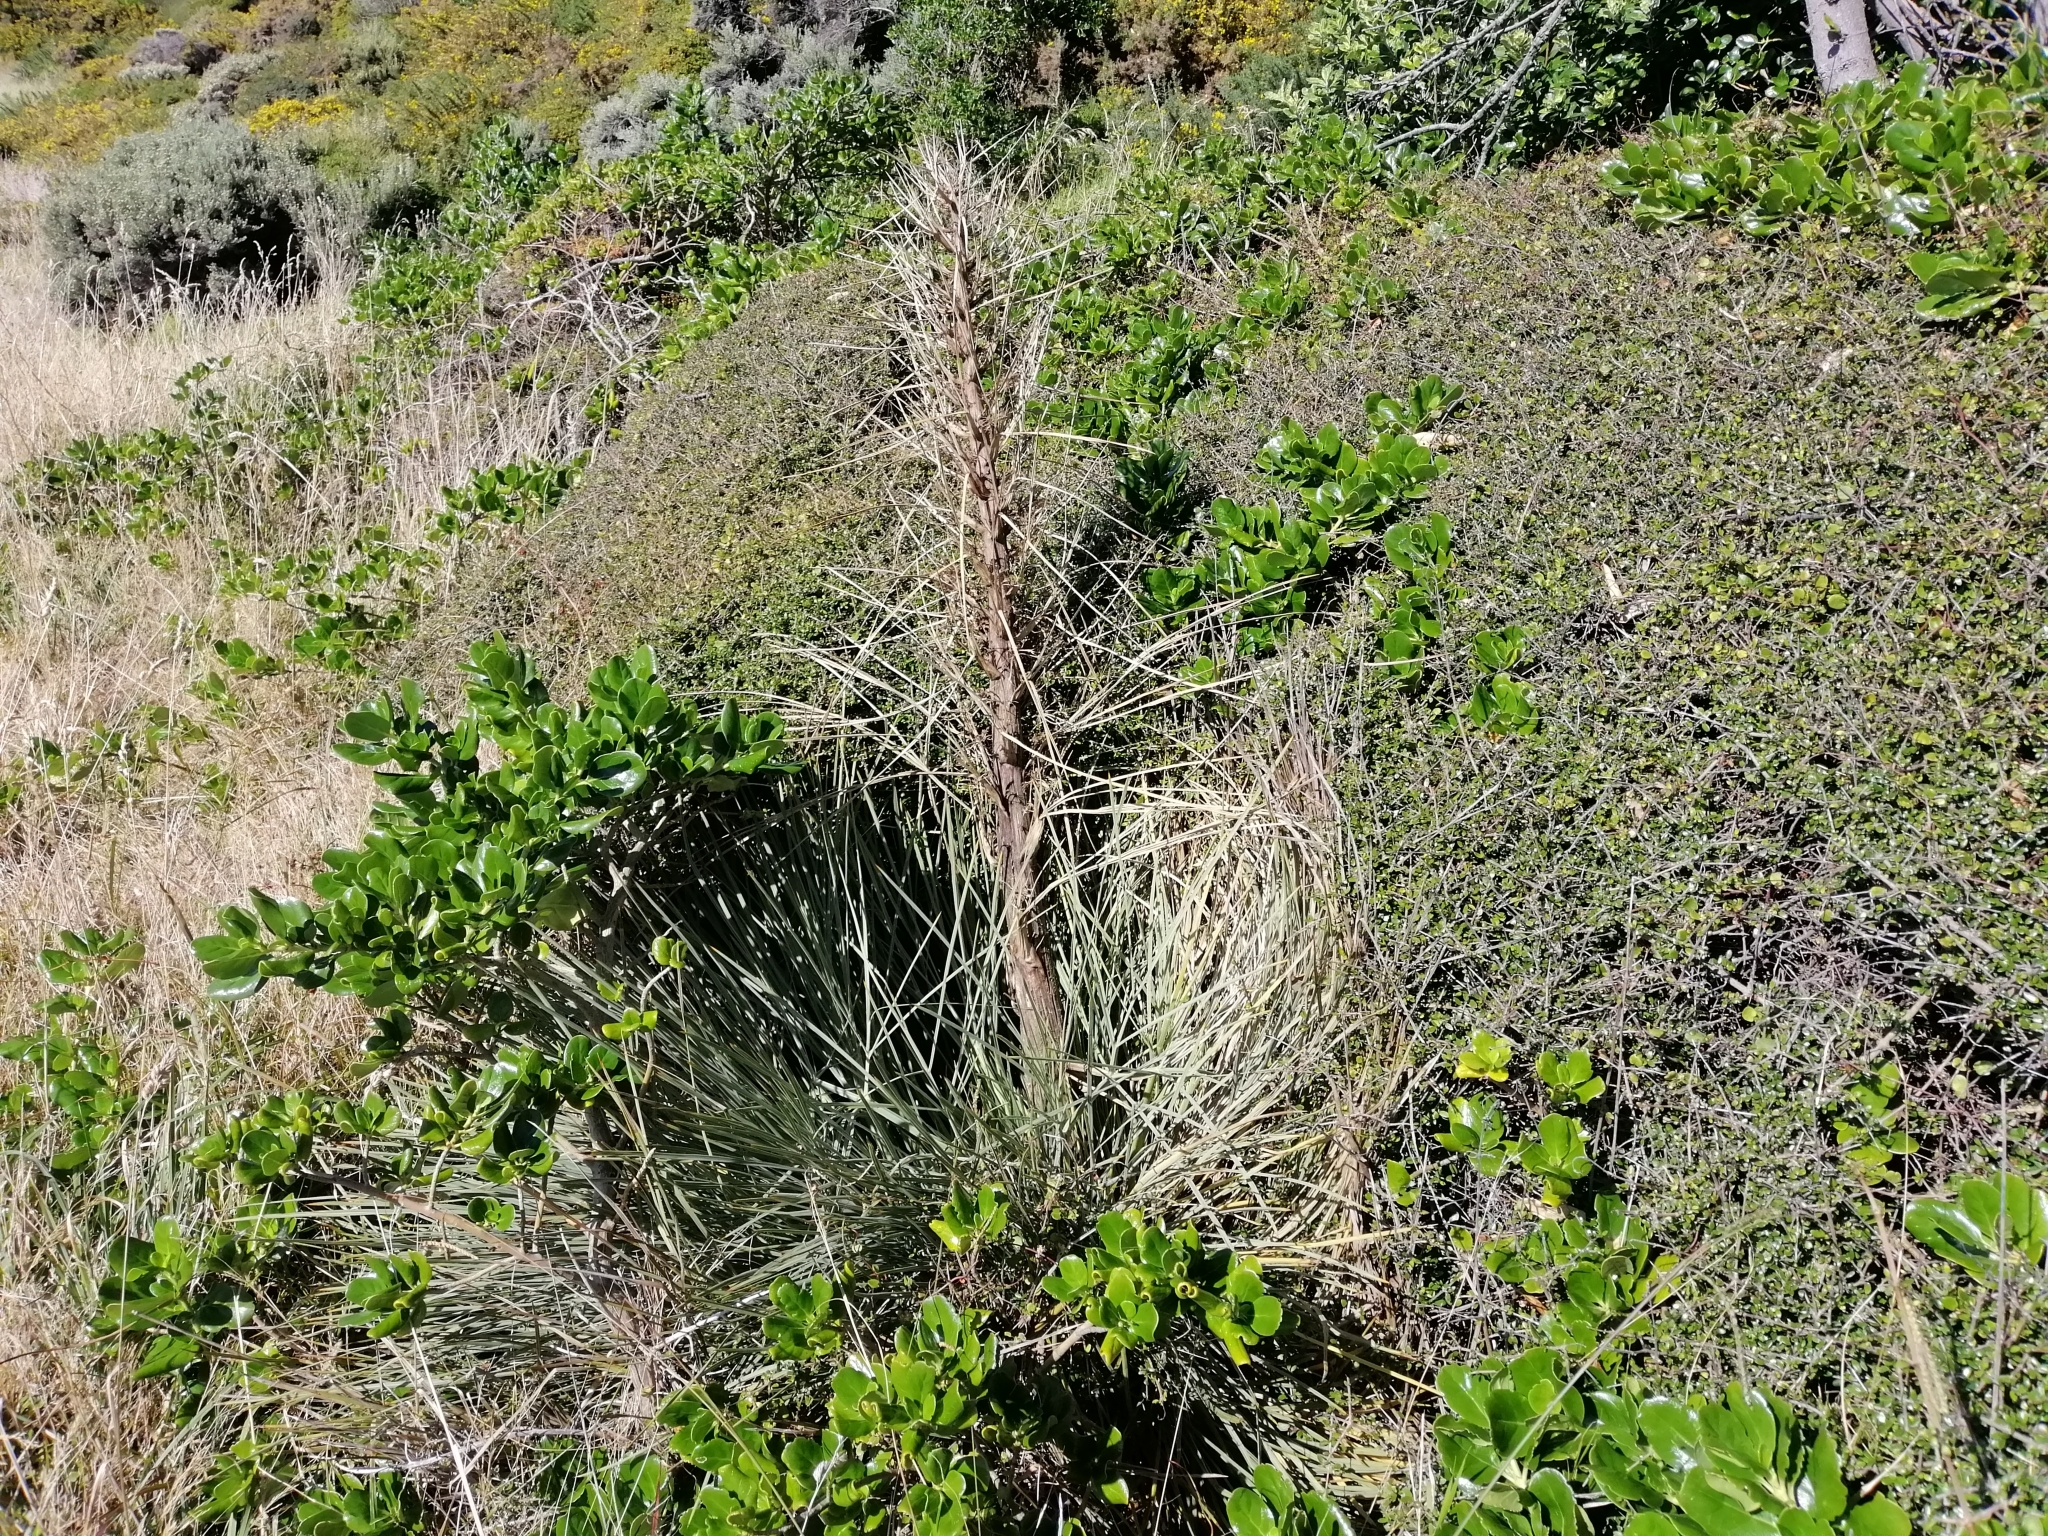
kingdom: Plantae
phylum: Tracheophyta
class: Magnoliopsida
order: Apiales
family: Apiaceae
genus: Aciphylla
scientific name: Aciphylla squarrosa
